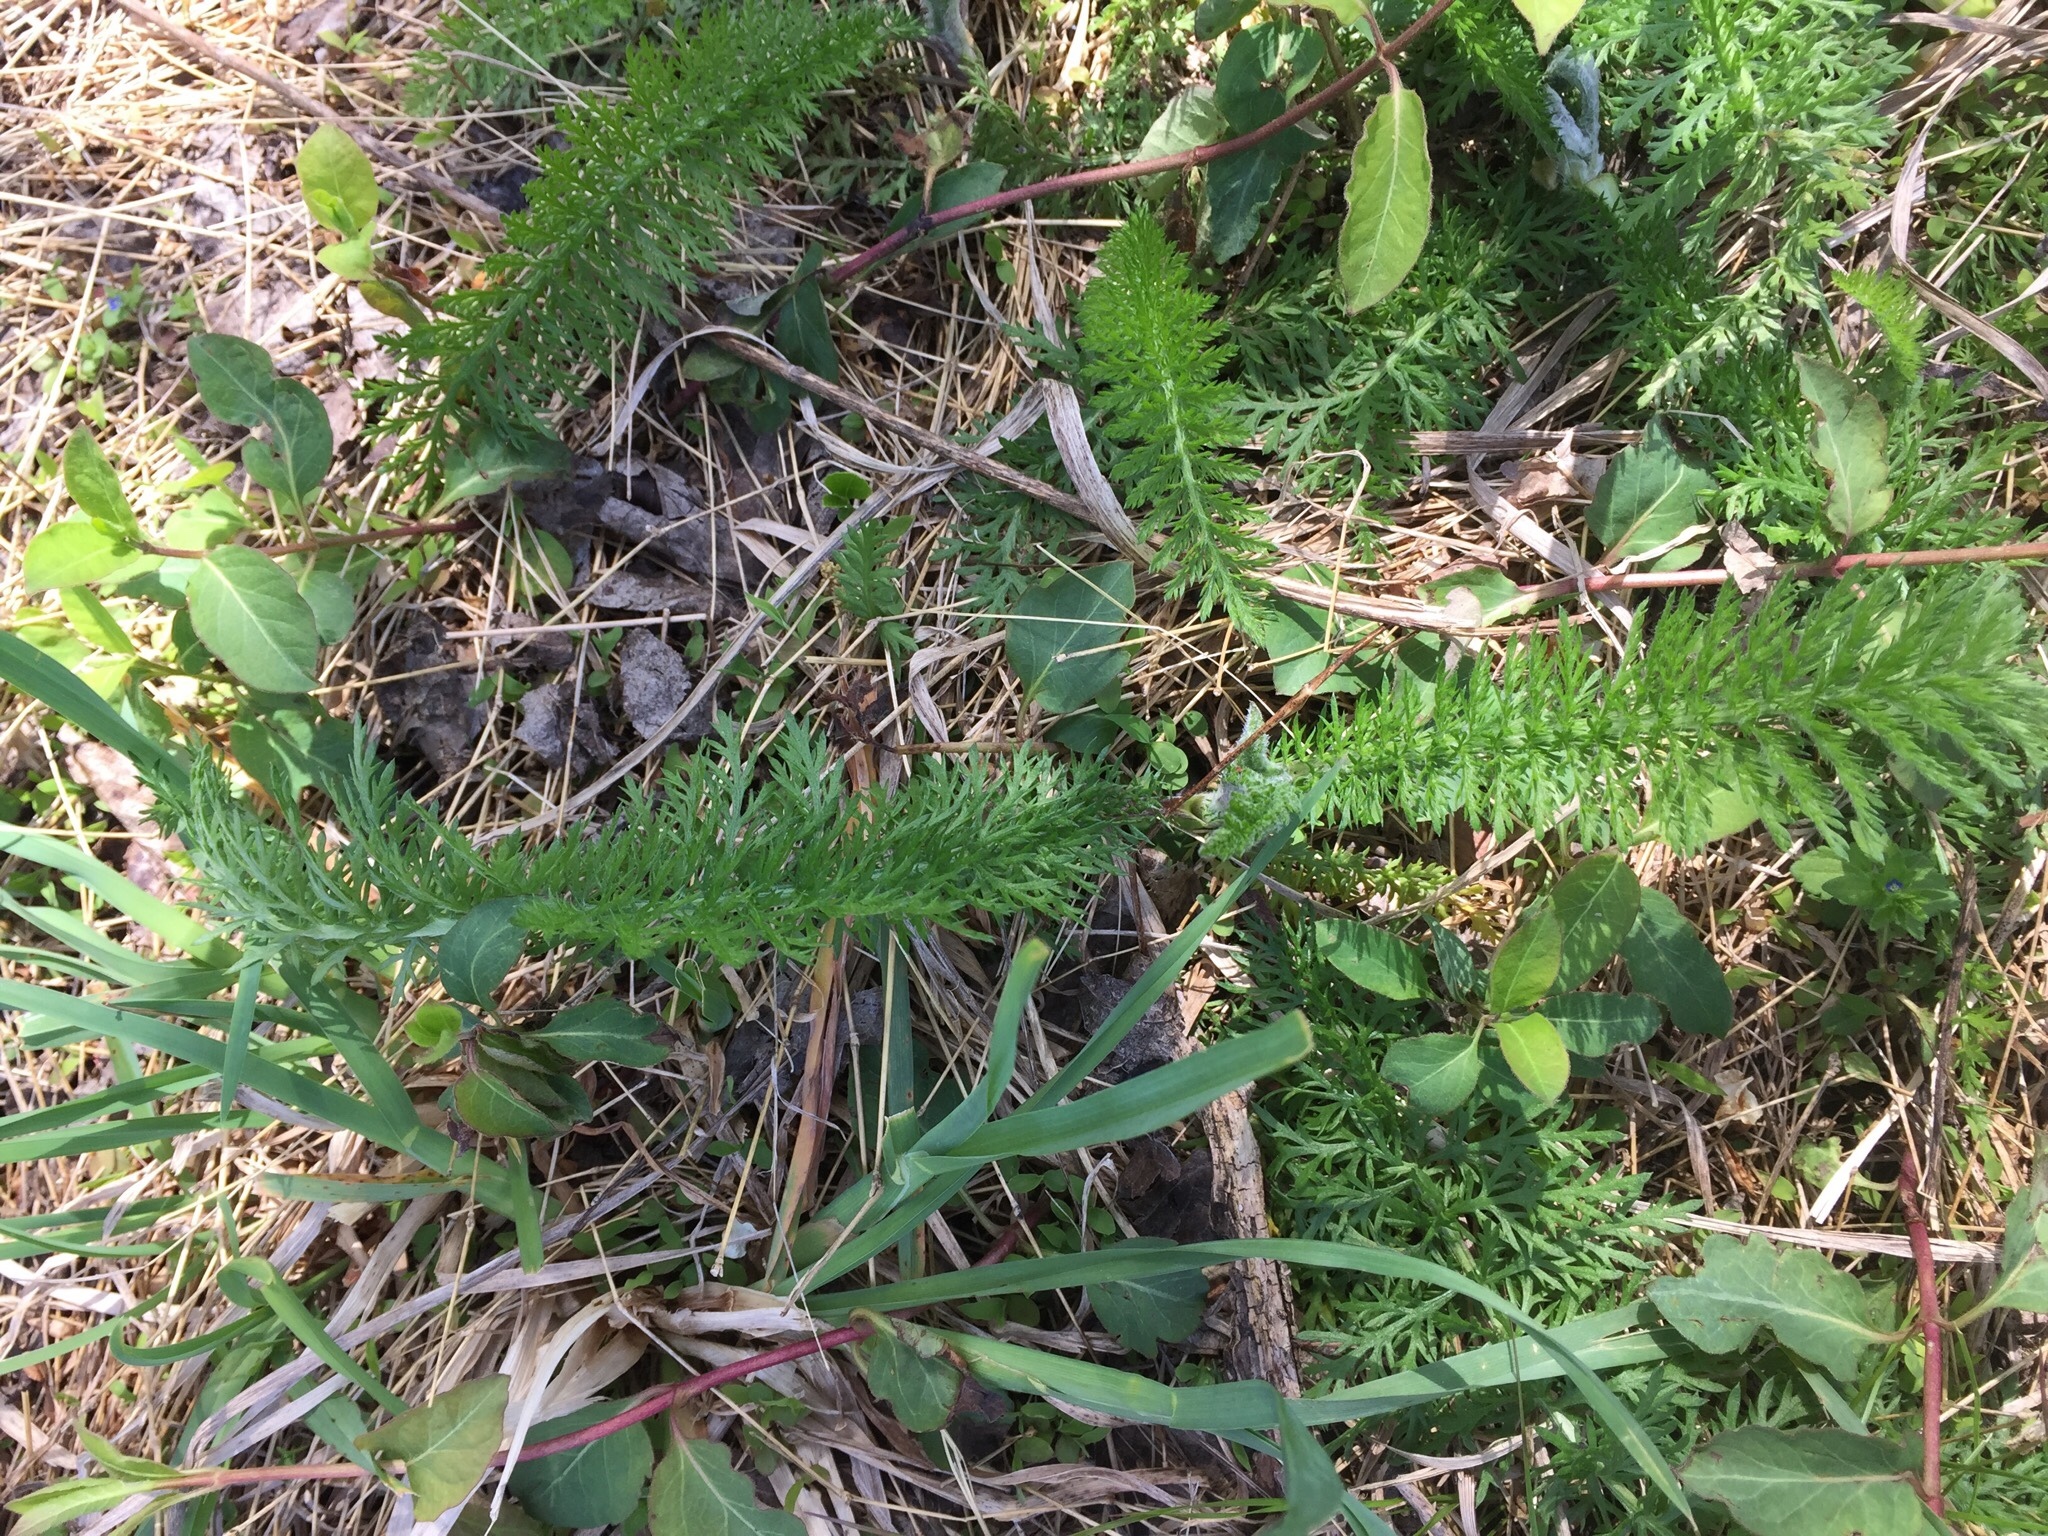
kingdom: Plantae
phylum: Tracheophyta
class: Magnoliopsida
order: Asterales
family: Asteraceae
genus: Achillea
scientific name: Achillea millefolium
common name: Yarrow
